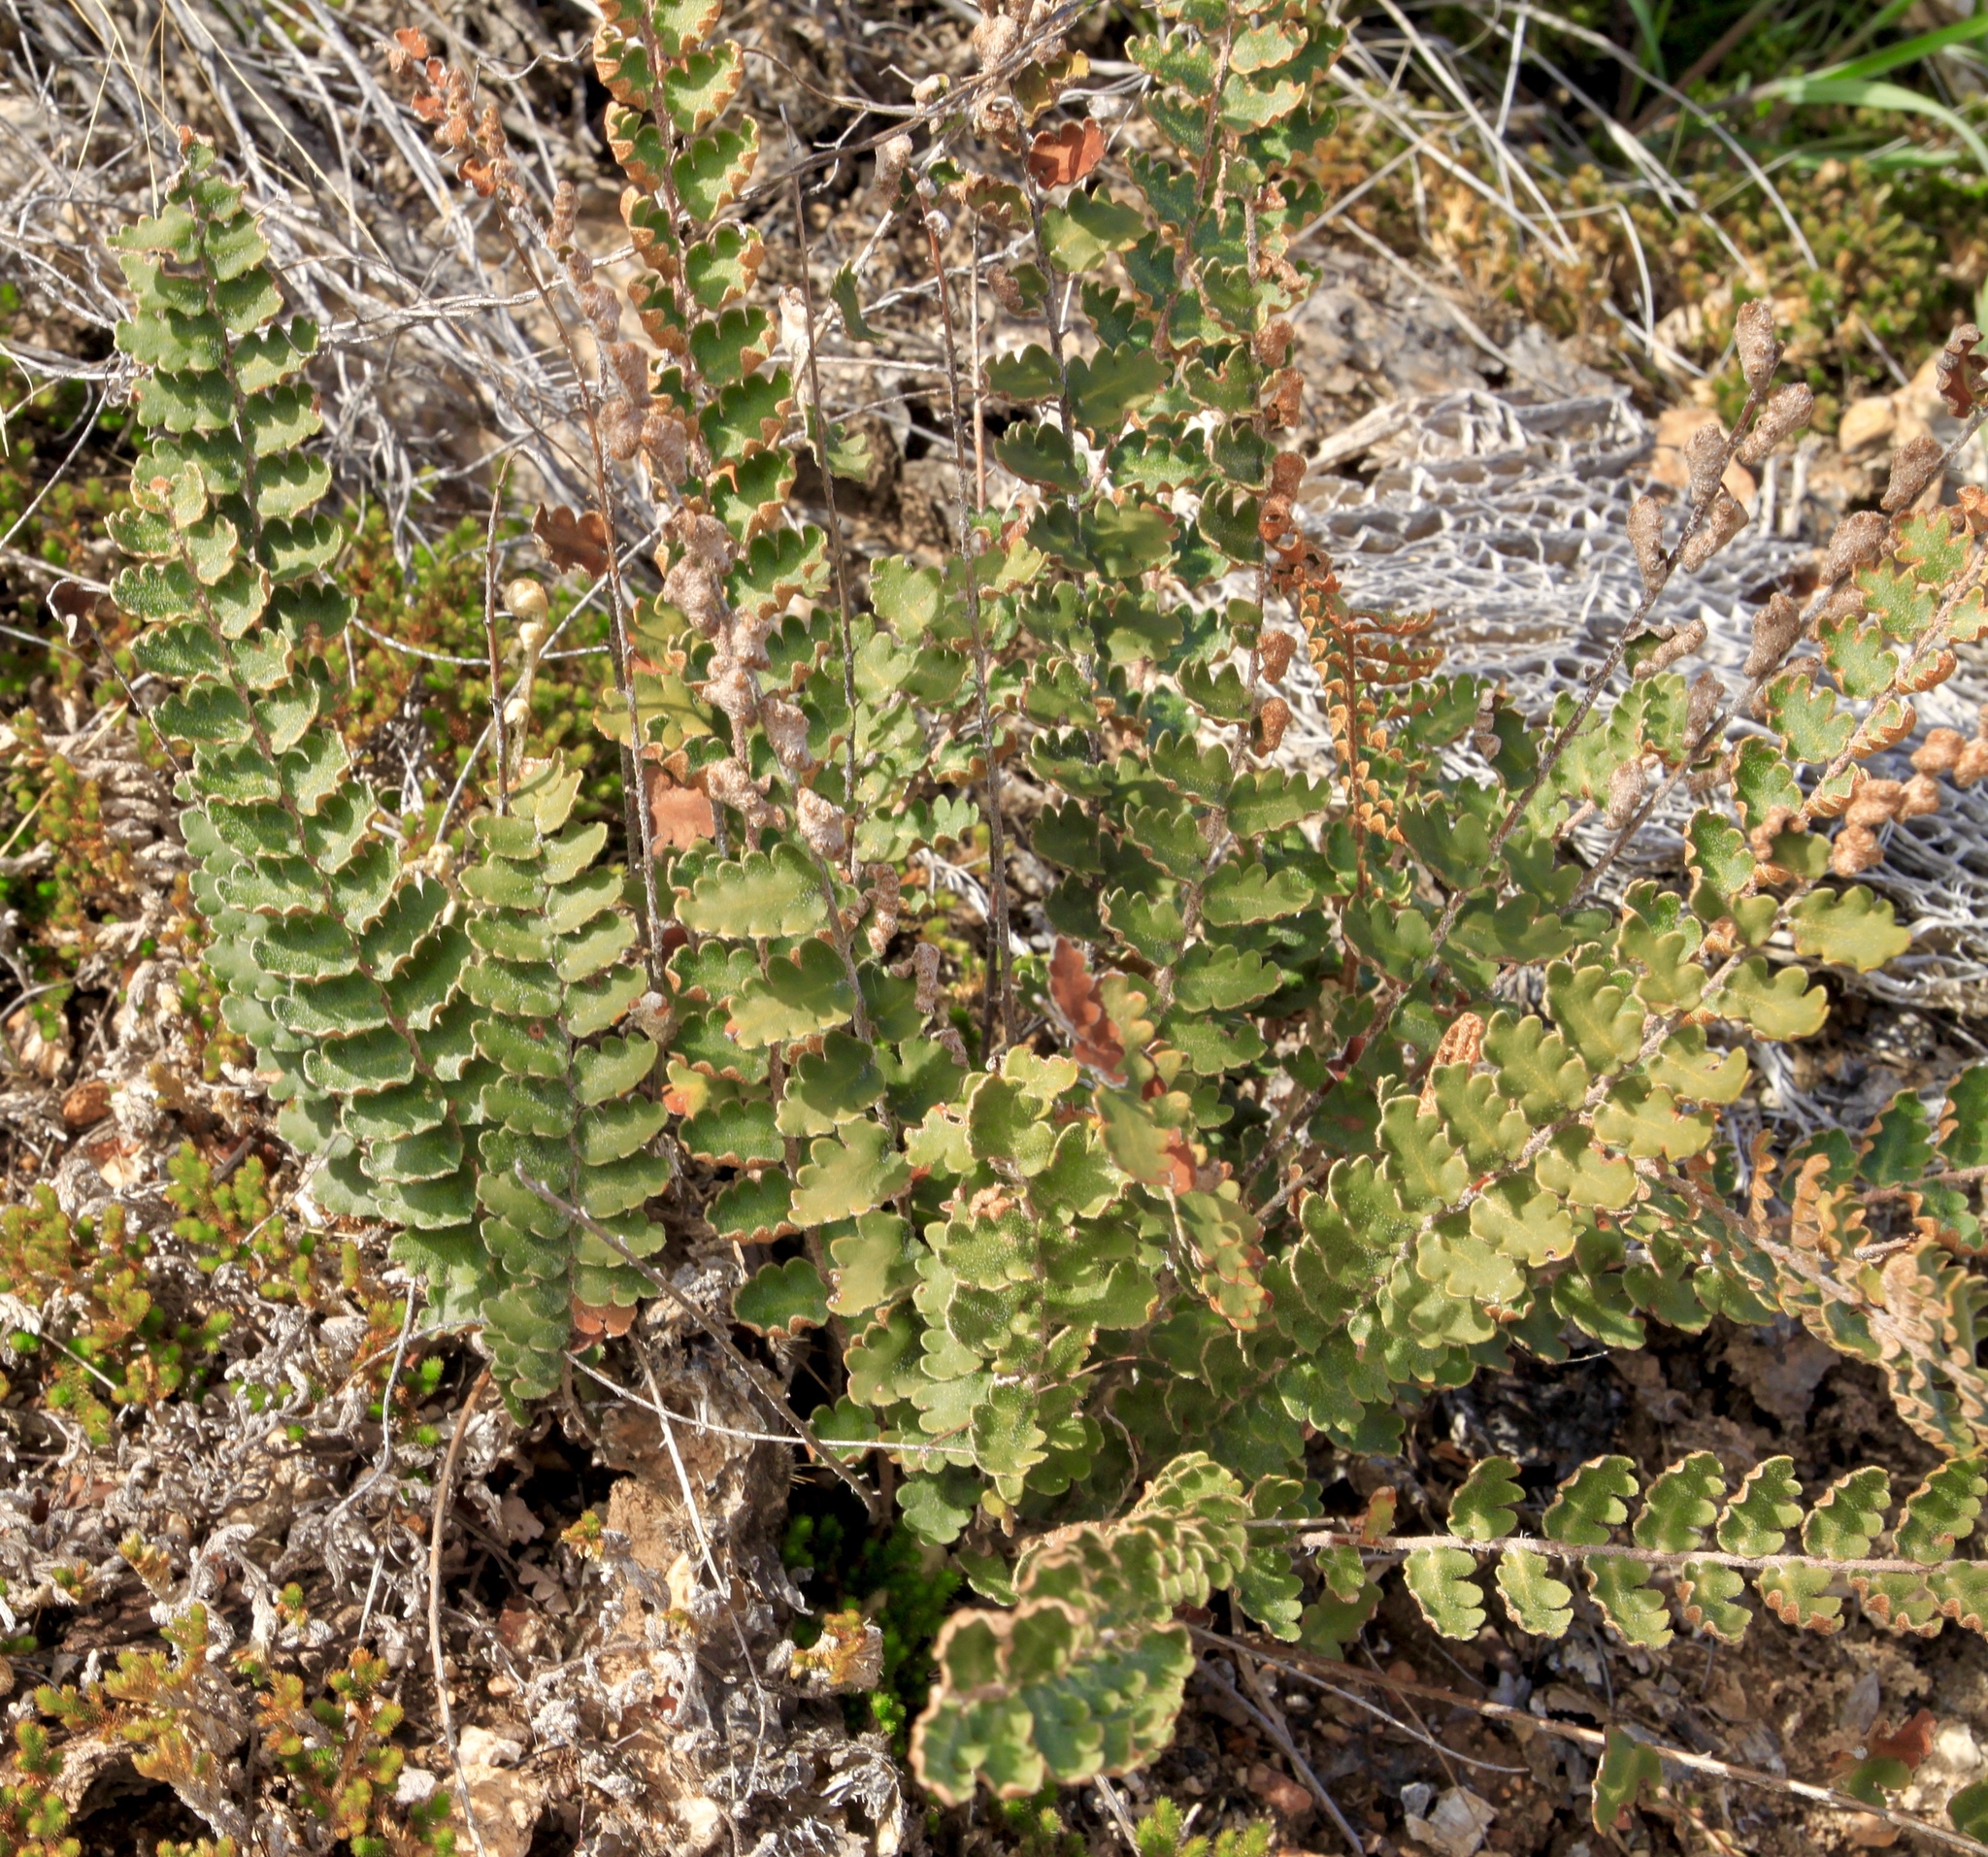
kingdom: Plantae
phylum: Tracheophyta
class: Polypodiopsida
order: Polypodiales
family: Pteridaceae
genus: Astrolepis
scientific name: Astrolepis sinuata
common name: Wavy scaly cloakfern
